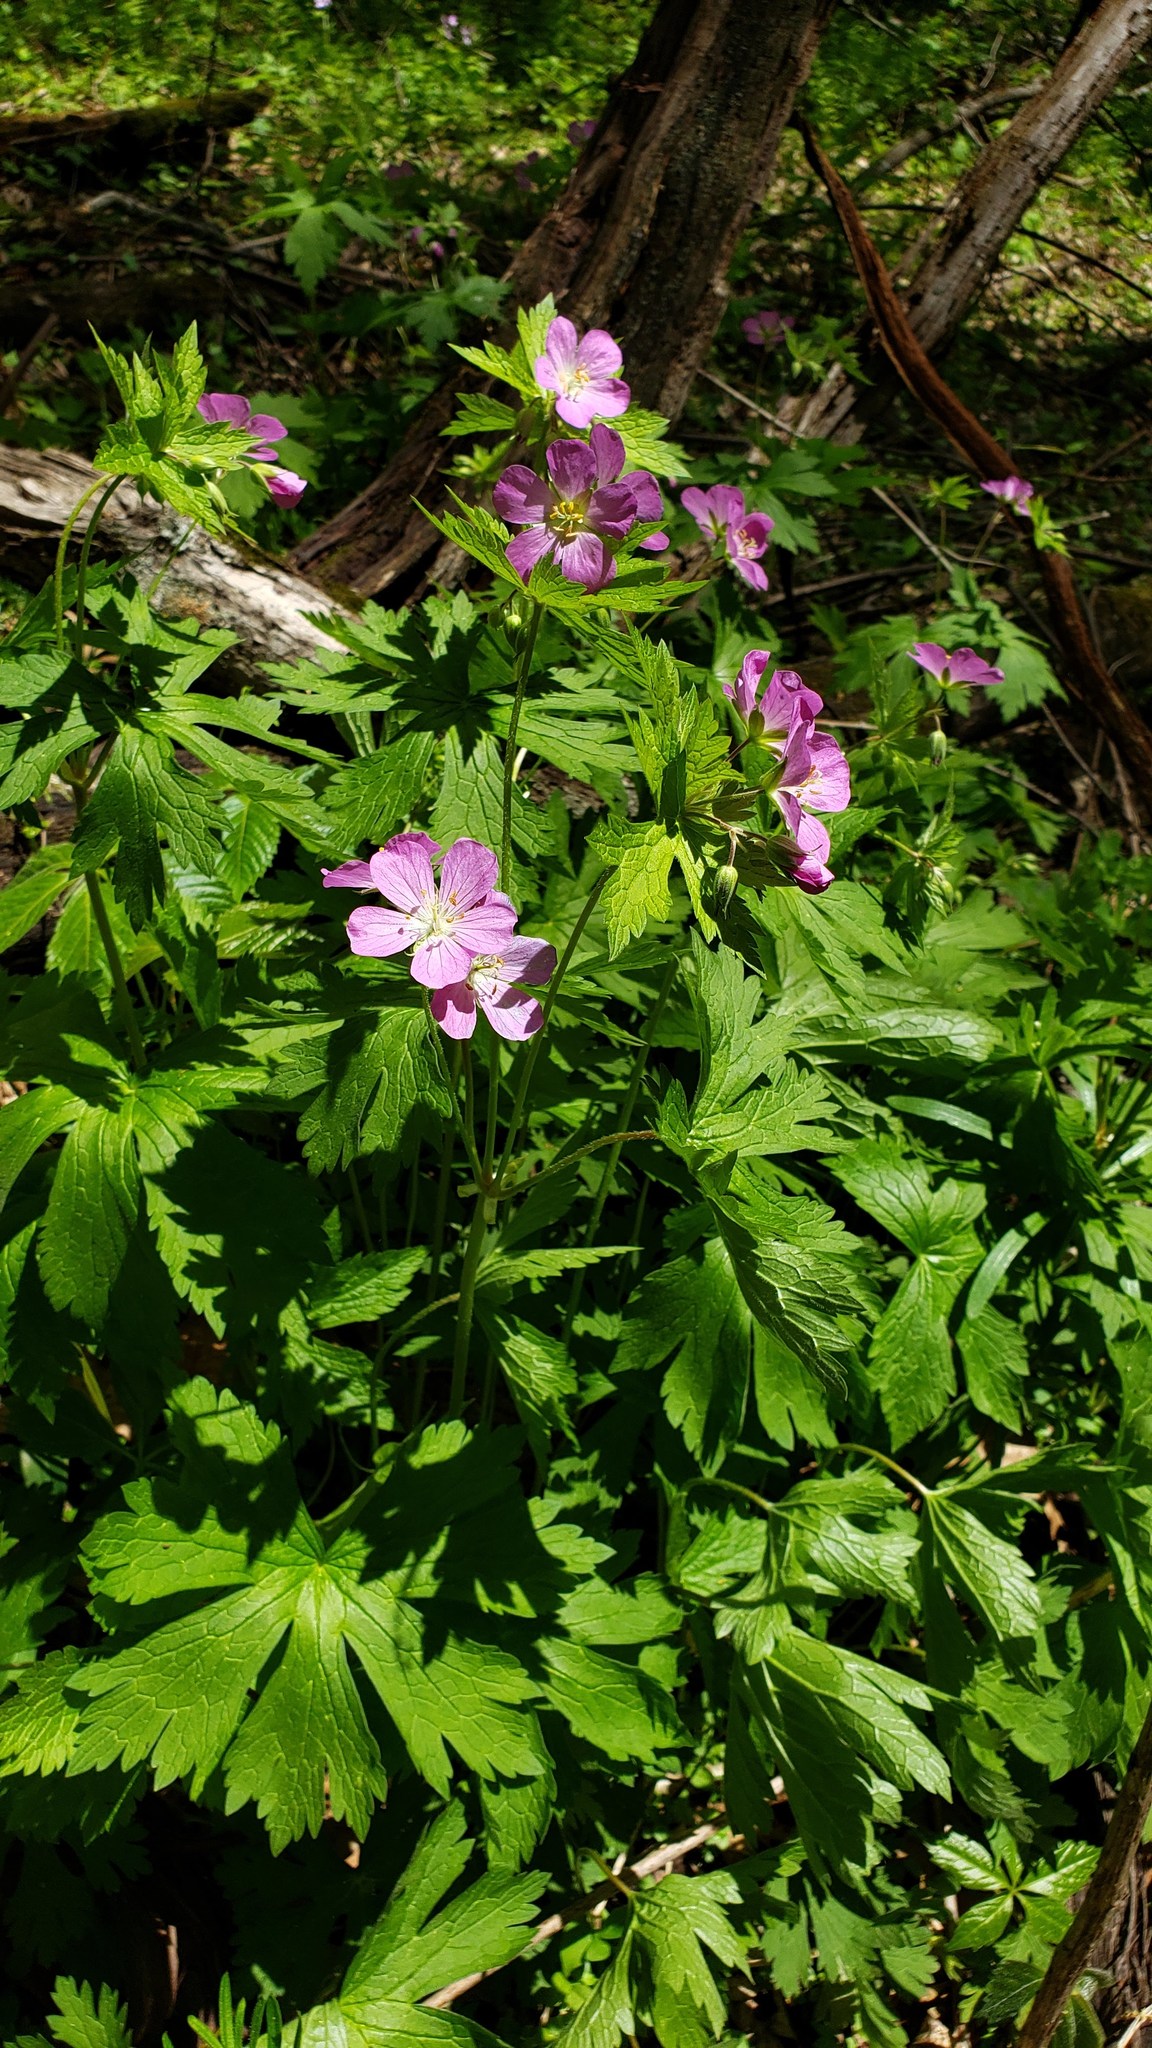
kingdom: Plantae
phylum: Tracheophyta
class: Magnoliopsida
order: Geraniales
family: Geraniaceae
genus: Geranium
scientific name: Geranium maculatum
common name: Spotted geranium
